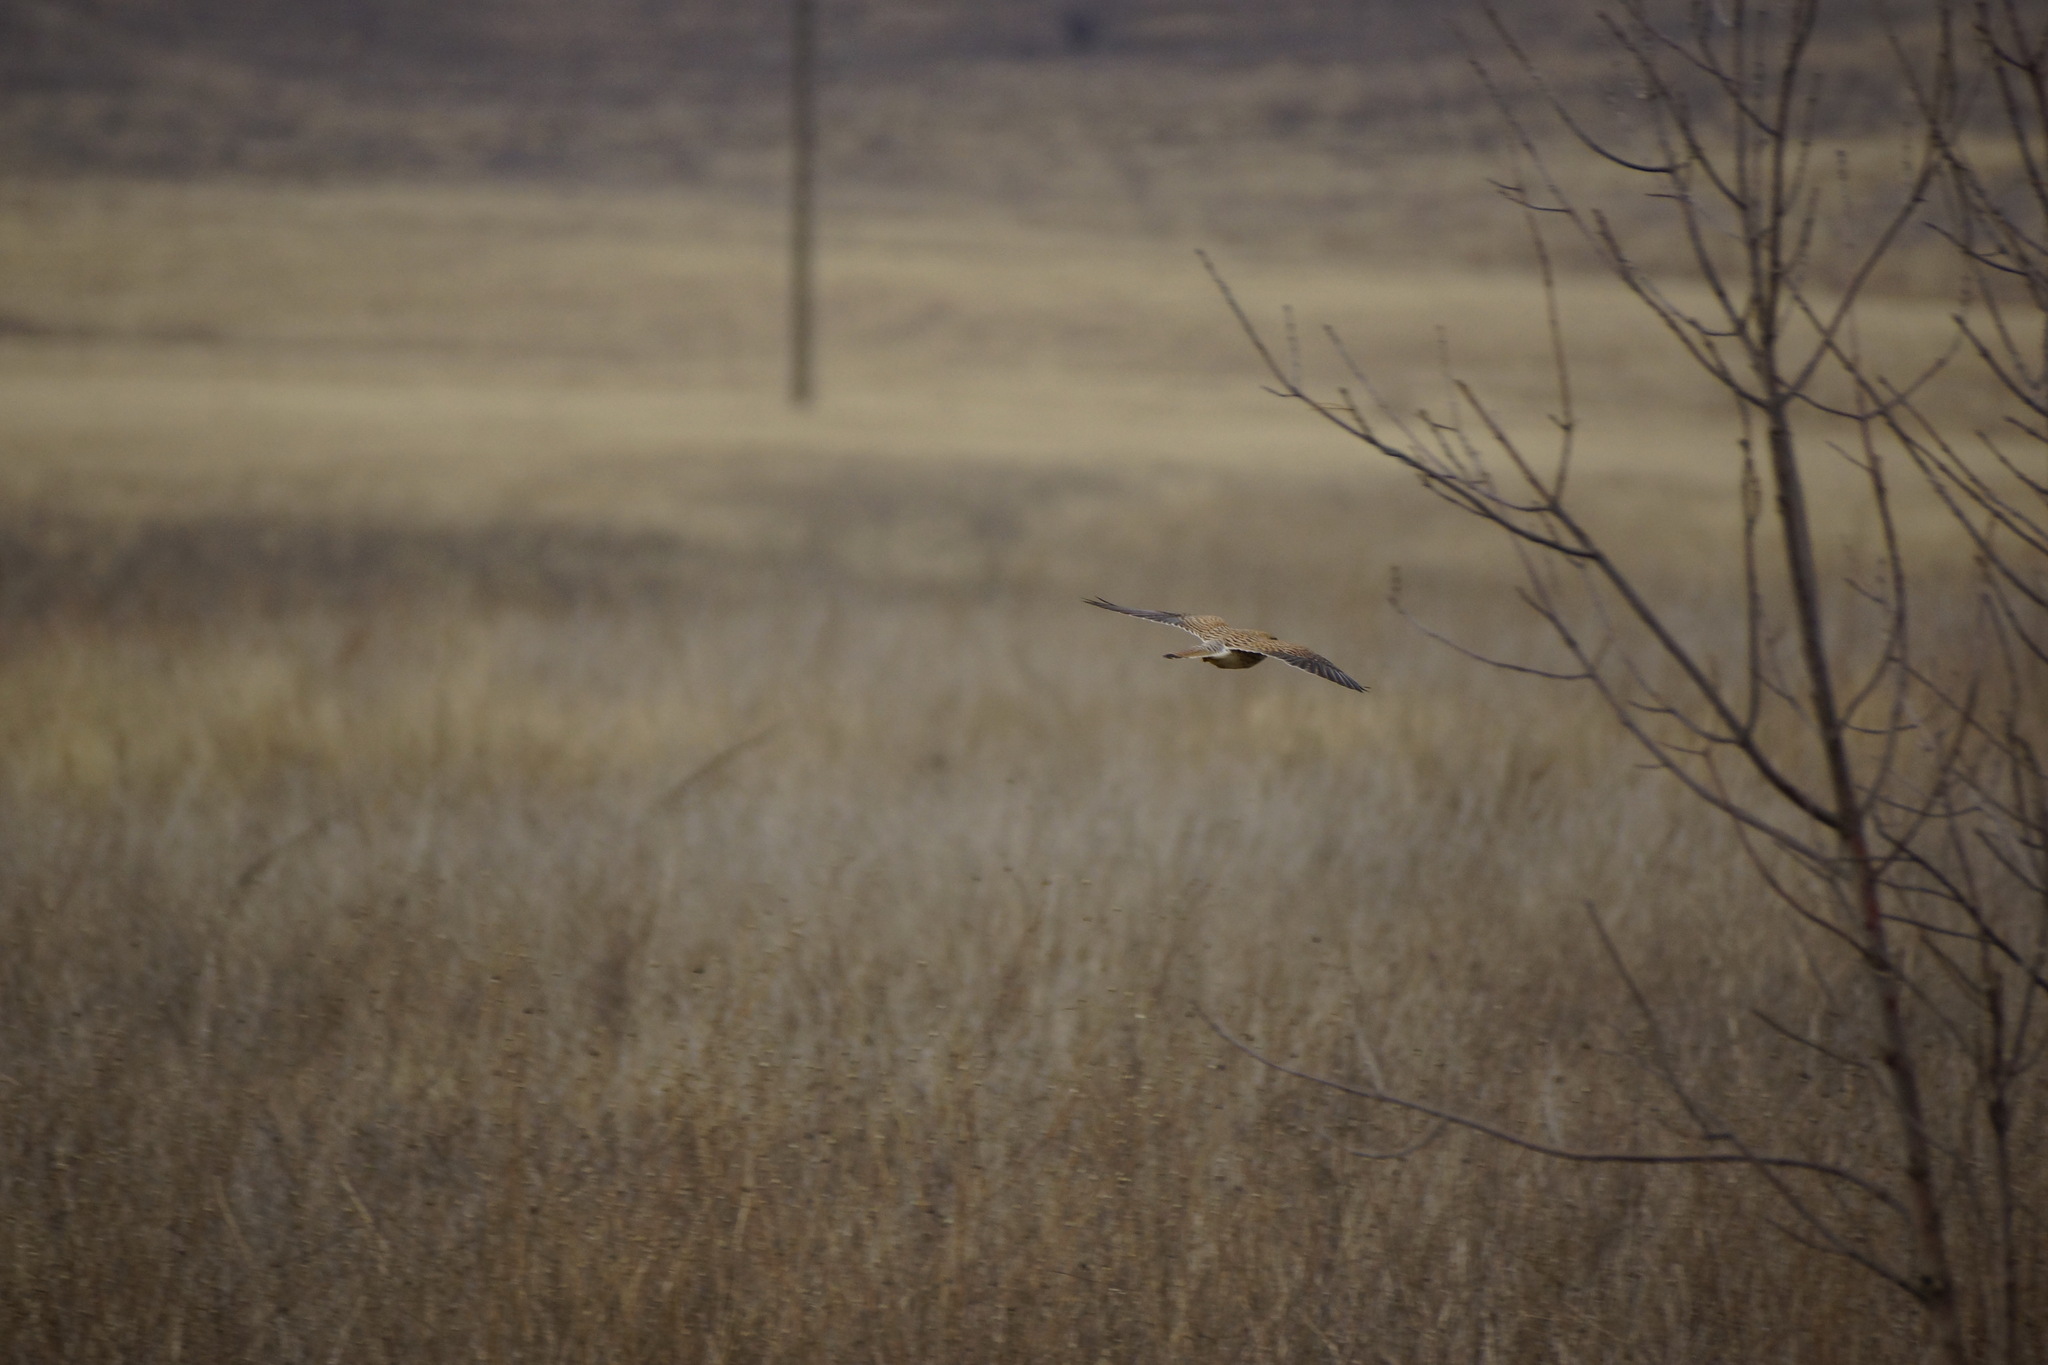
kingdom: Animalia
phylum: Chordata
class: Aves
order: Falconiformes
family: Falconidae
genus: Falco
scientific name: Falco tinnunculus
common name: Common kestrel
